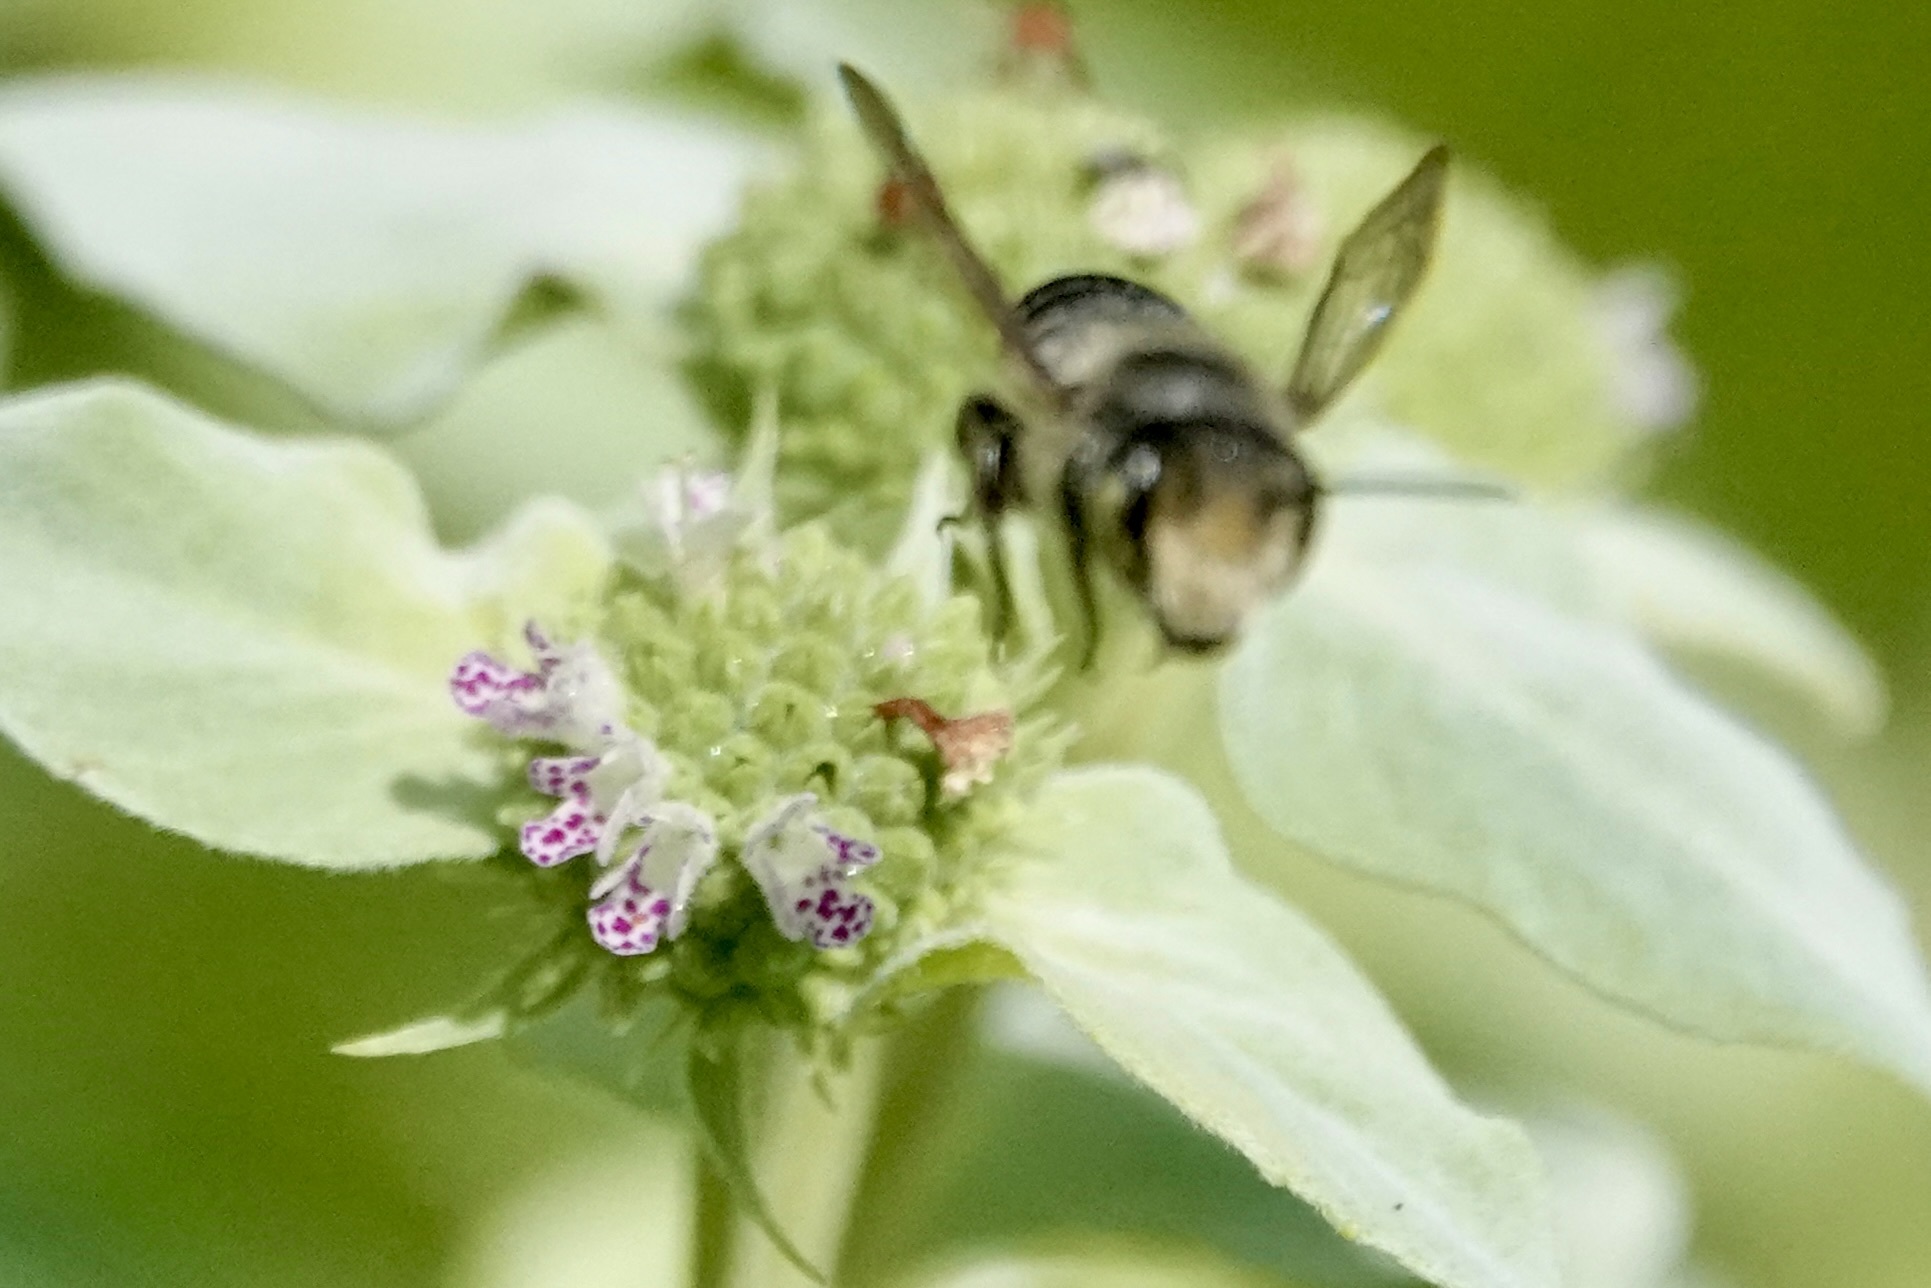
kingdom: Animalia
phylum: Arthropoda
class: Insecta
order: Hymenoptera
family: Megachilidae
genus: Megachile
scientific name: Megachile mendica
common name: Flat-tailed leafcutter
